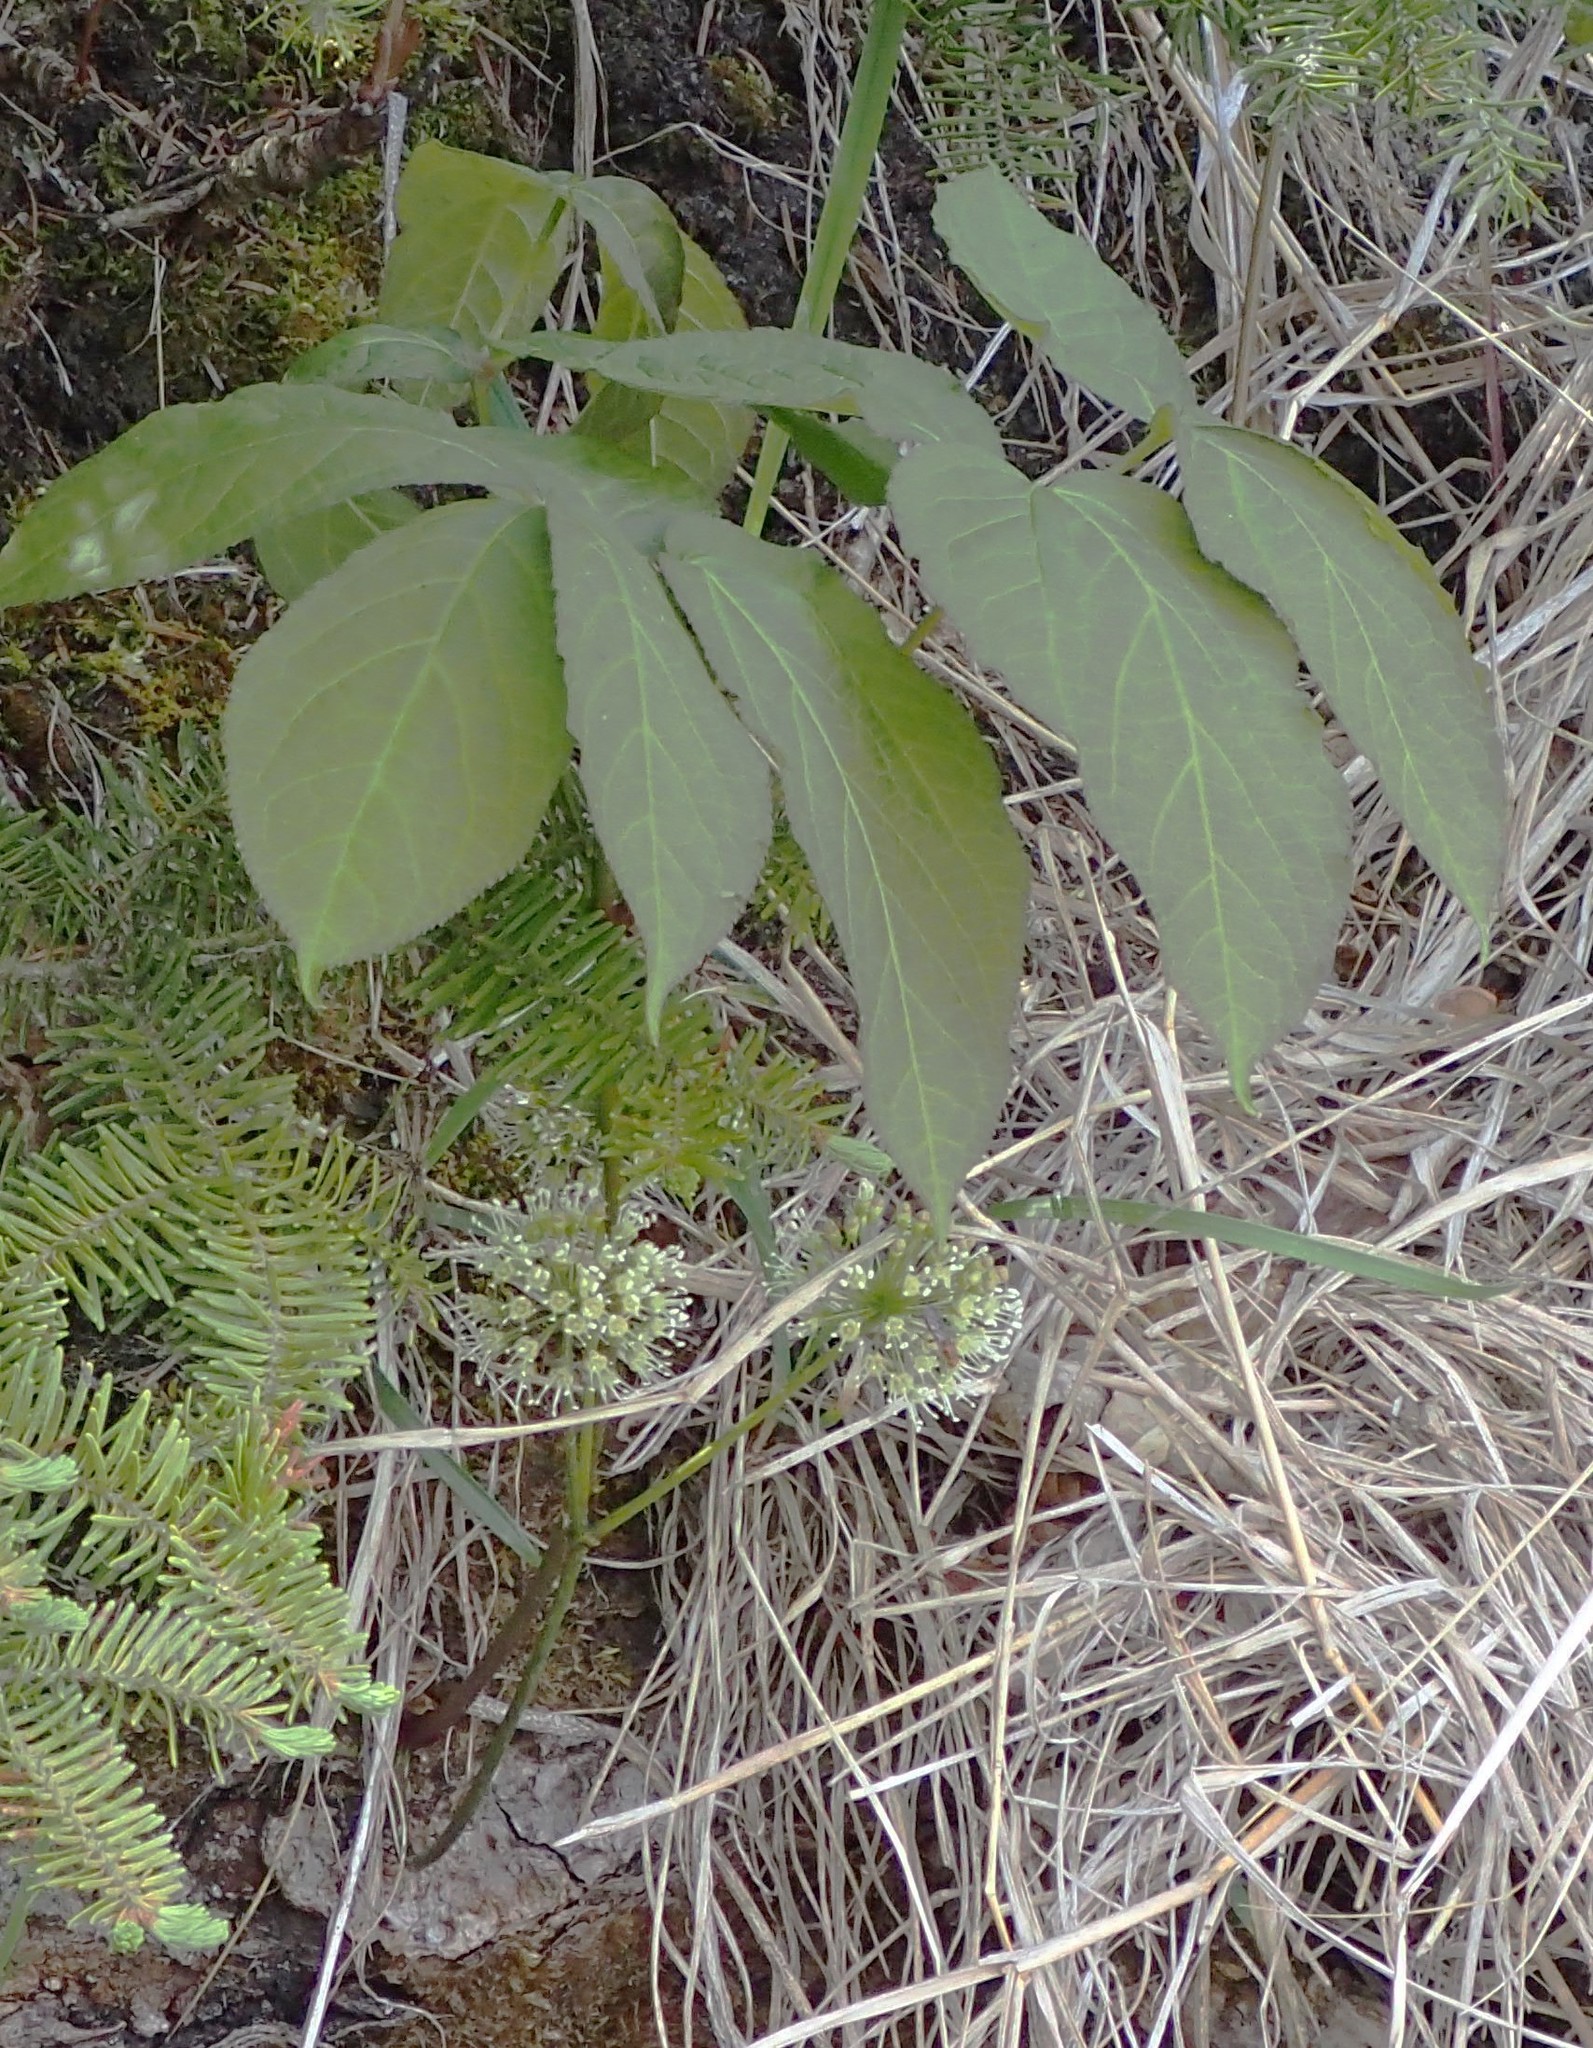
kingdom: Plantae
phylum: Tracheophyta
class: Magnoliopsida
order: Apiales
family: Araliaceae
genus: Aralia
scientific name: Aralia nudicaulis
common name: Wild sarsaparilla
